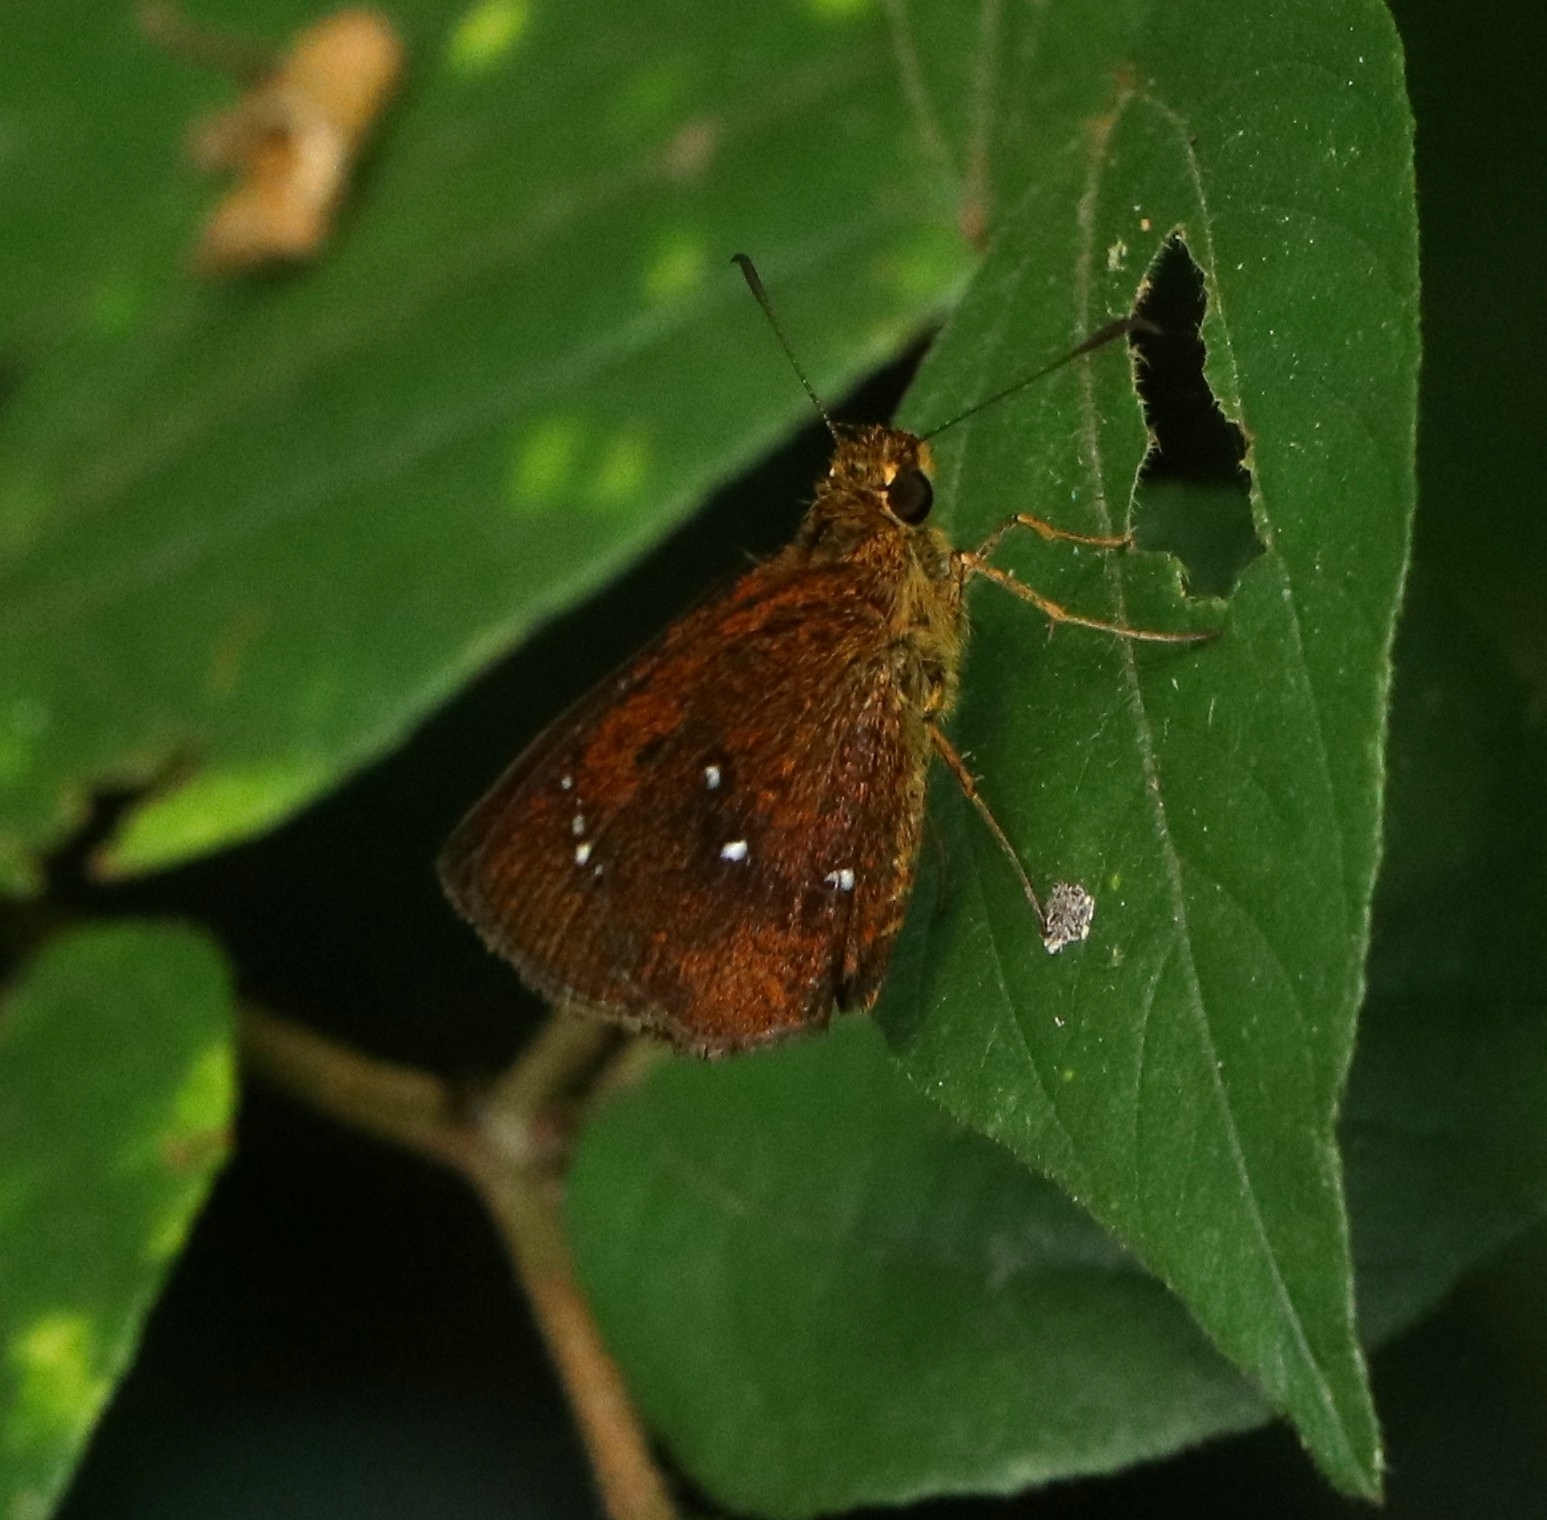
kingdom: Animalia
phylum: Arthropoda
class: Insecta
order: Lepidoptera
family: Hesperiidae
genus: Iambrix
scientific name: Iambrix salsala
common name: Chestnut bob
